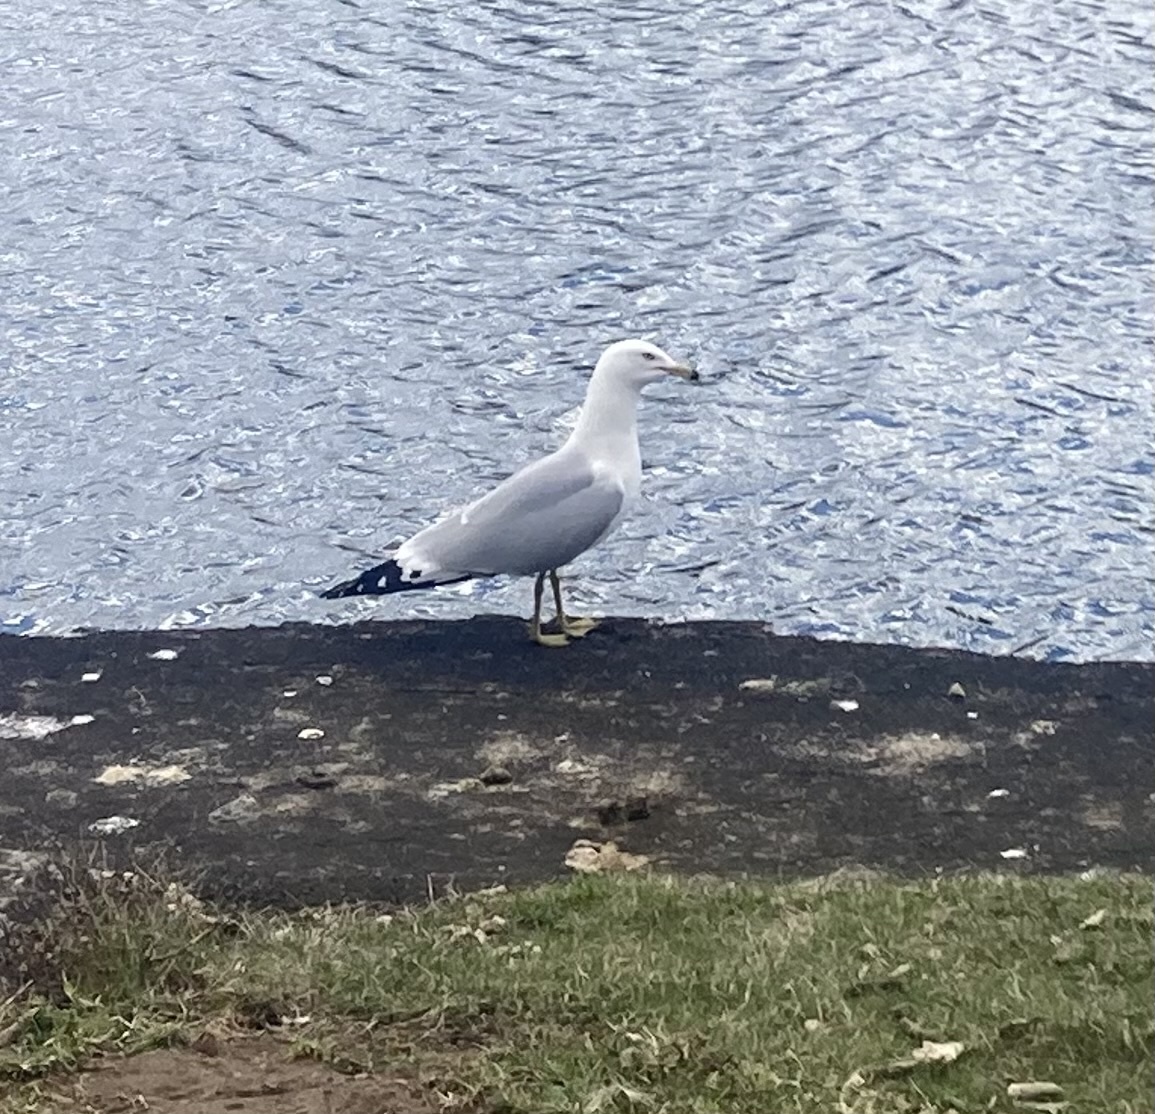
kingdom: Animalia
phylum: Chordata
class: Aves
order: Charadriiformes
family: Laridae
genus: Larus
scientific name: Larus delawarensis
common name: Ring-billed gull
